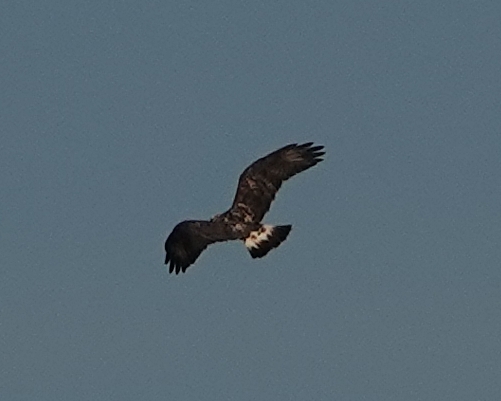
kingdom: Animalia
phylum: Chordata
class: Aves
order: Accipitriformes
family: Accipitridae
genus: Buteo
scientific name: Buteo lagopus
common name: Rough-legged buzzard
